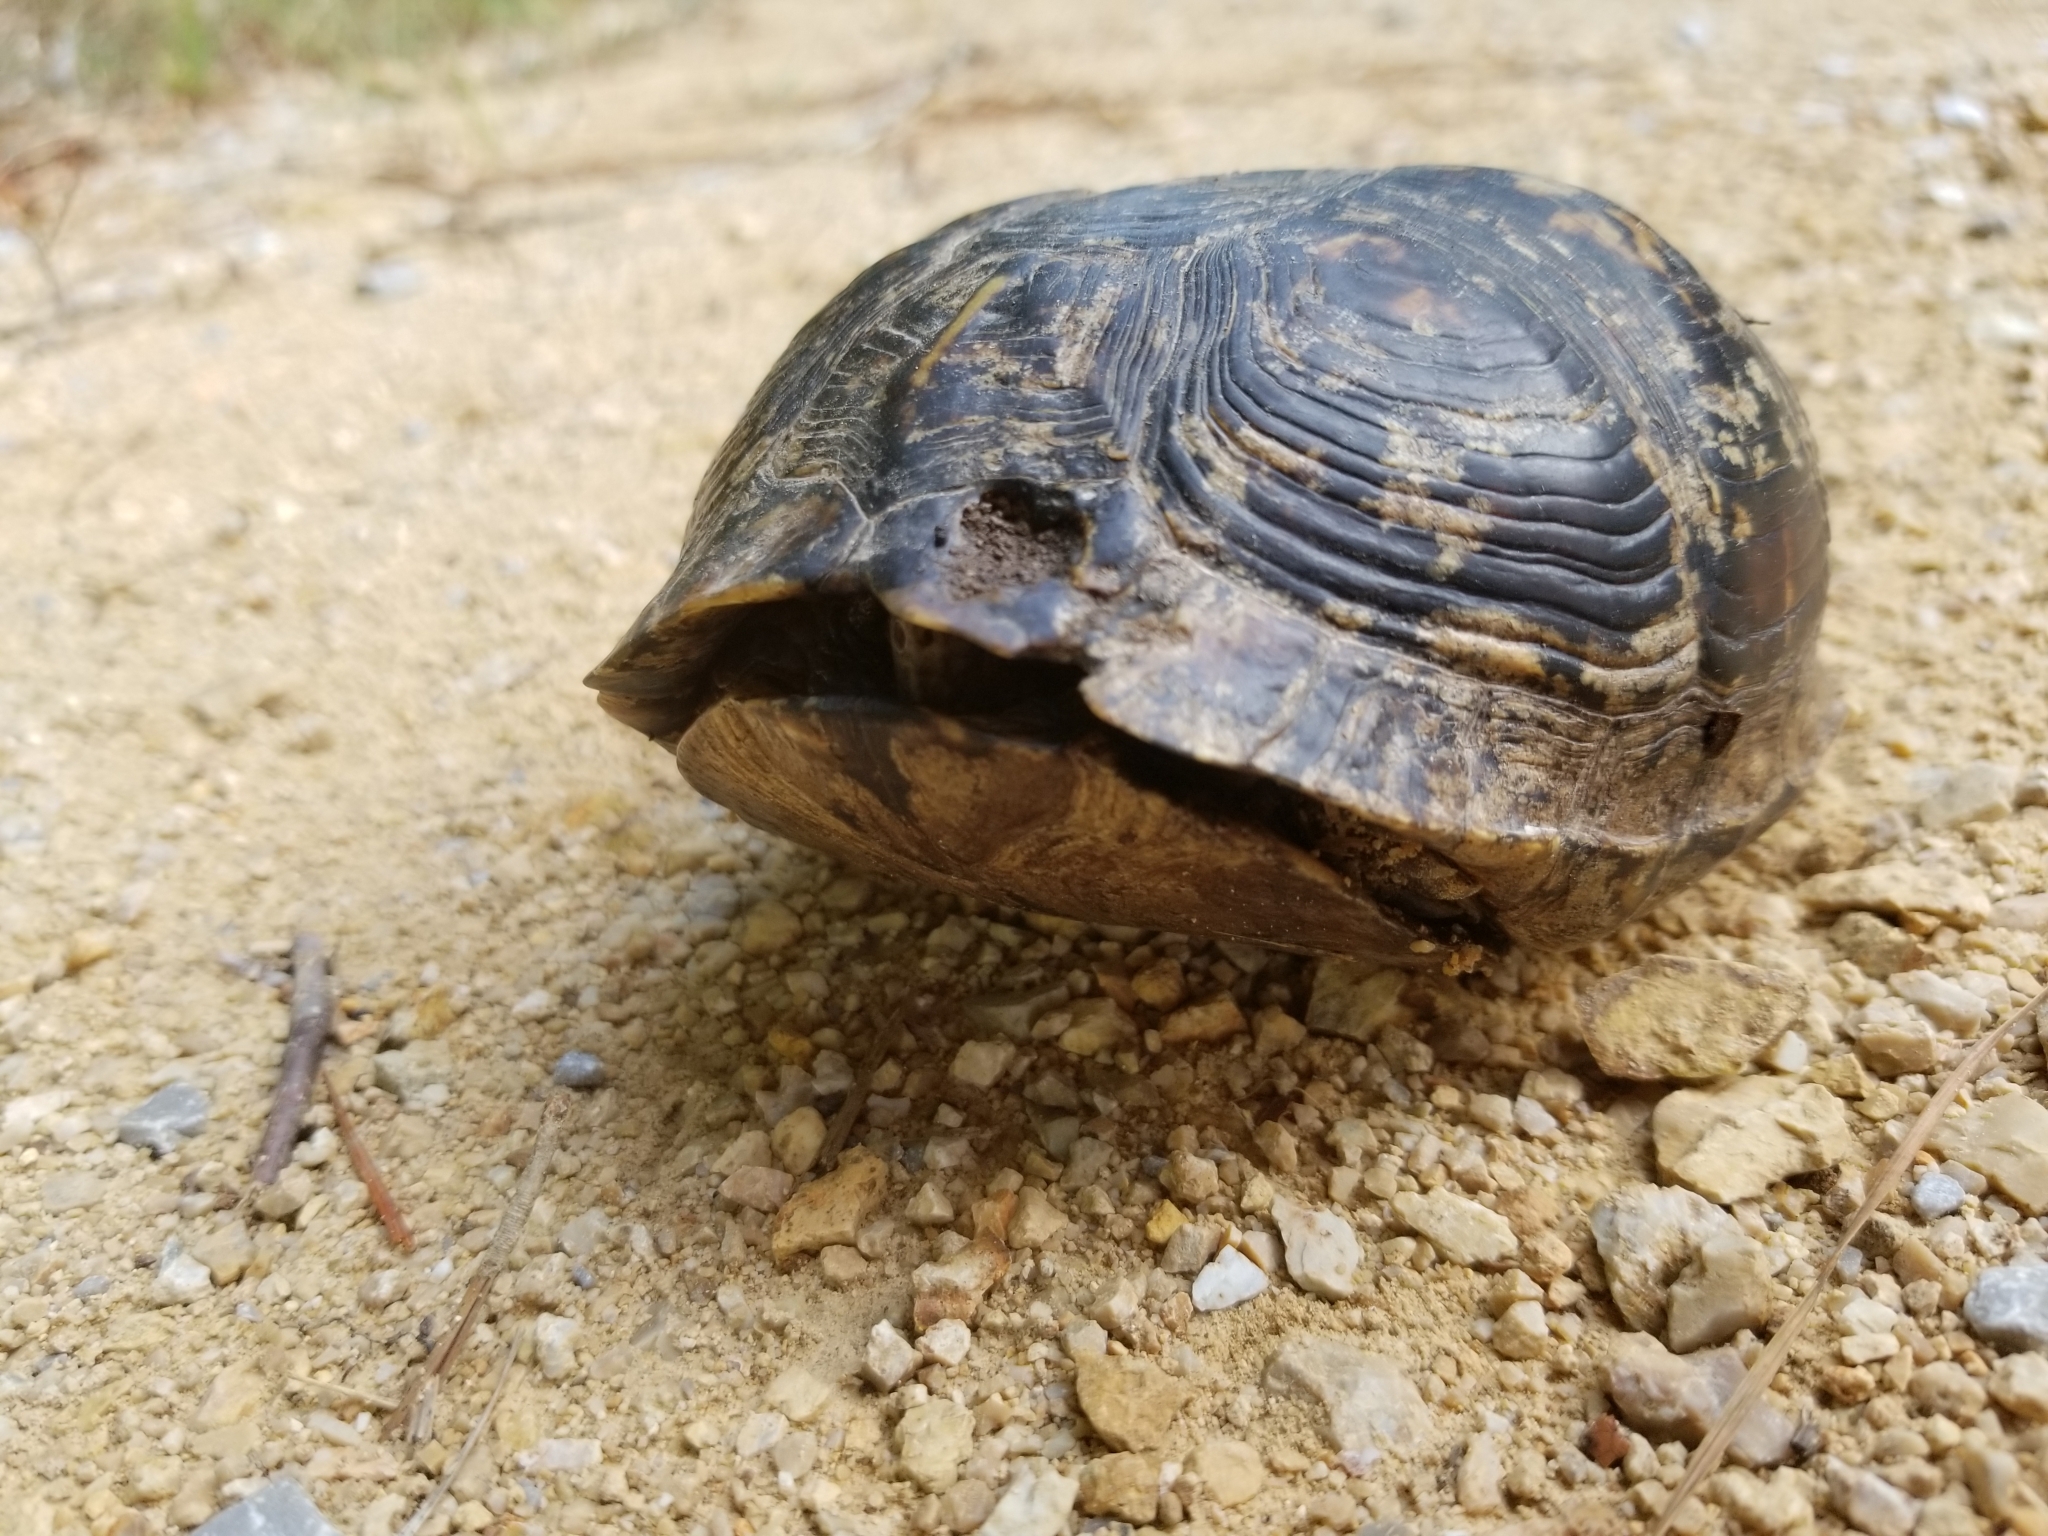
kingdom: Animalia
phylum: Chordata
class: Testudines
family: Emydidae
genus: Terrapene
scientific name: Terrapene carolina
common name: Common box turtle
